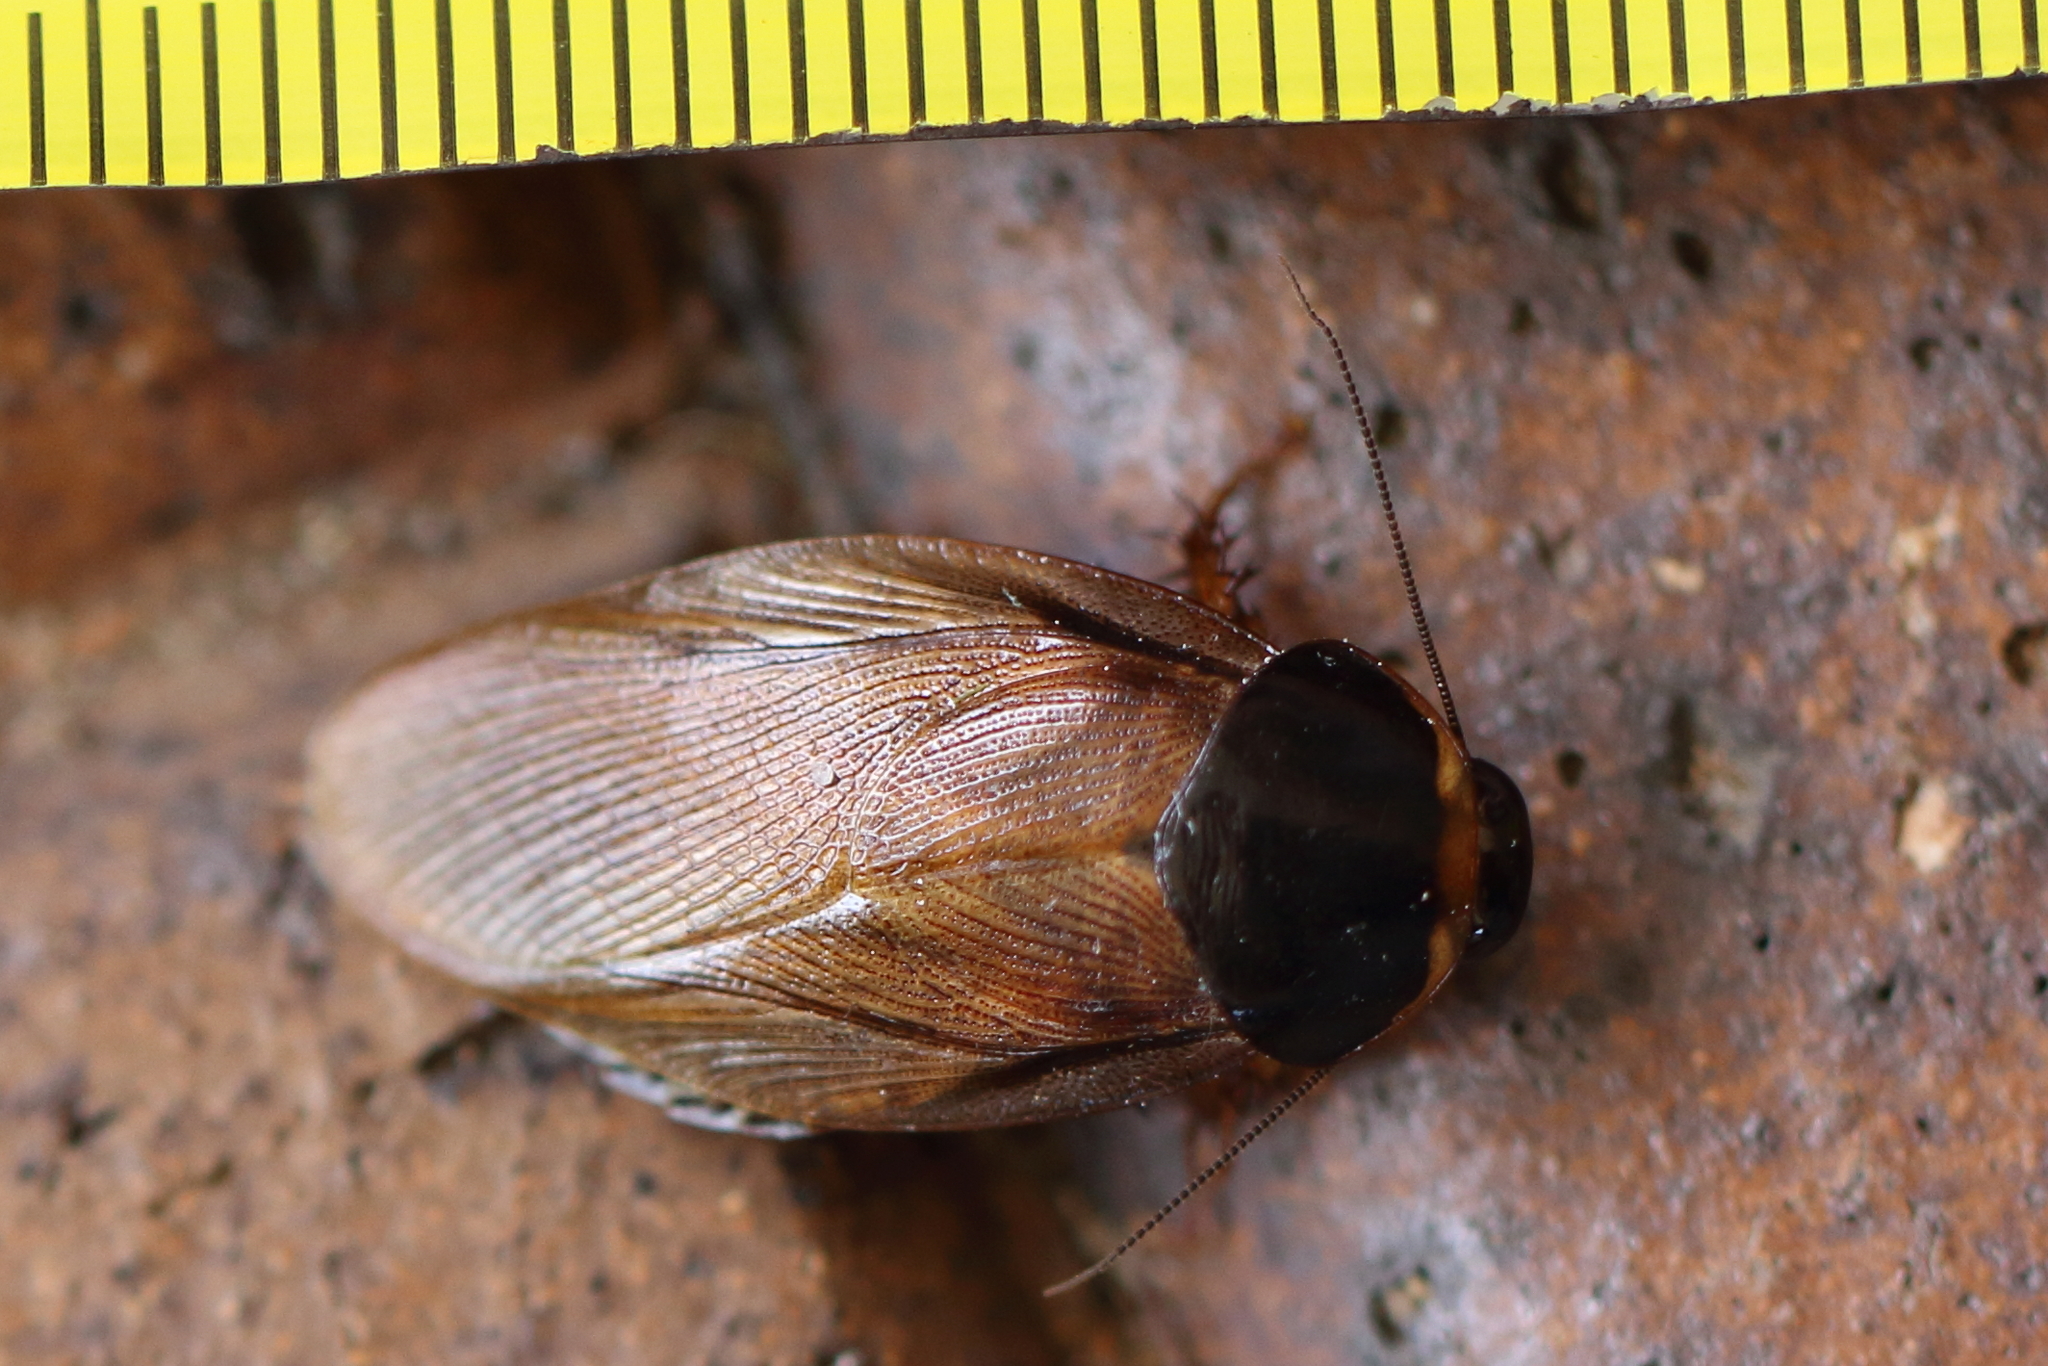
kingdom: Animalia
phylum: Arthropoda
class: Insecta
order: Blattodea
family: Blaberidae
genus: Pycnoscelus
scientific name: Pycnoscelus surinamensis
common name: Surinam cockroach
